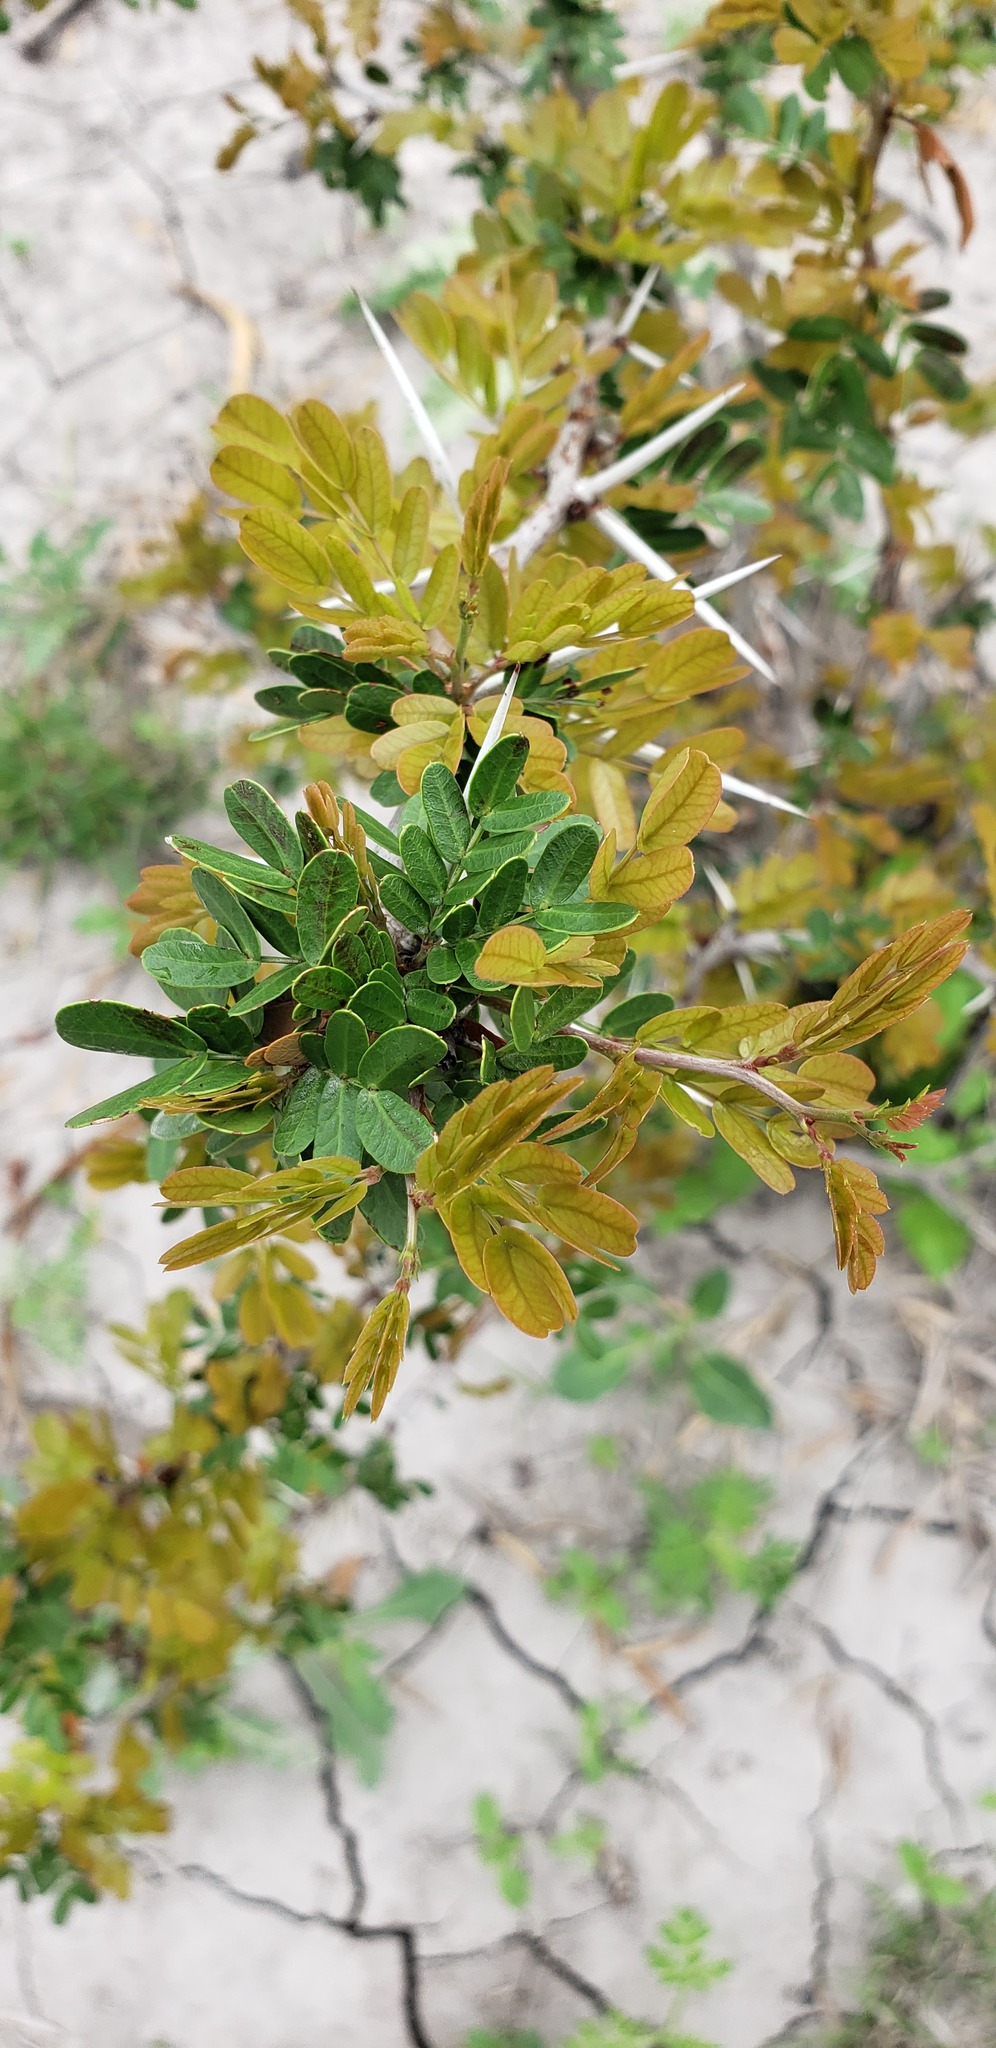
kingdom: Plantae
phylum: Tracheophyta
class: Magnoliopsida
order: Fabales
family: Fabaceae
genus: Vachellia
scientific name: Vachellia rigidula
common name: Blackbrush
